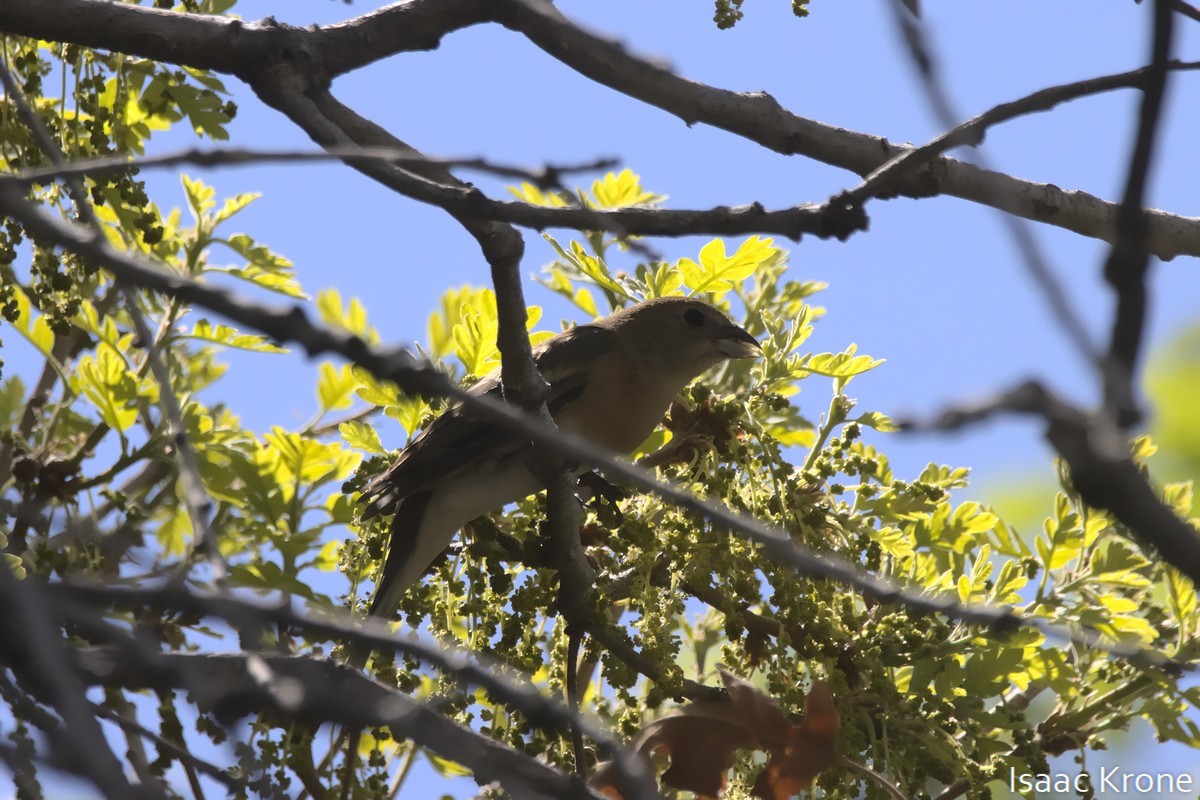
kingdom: Animalia
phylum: Chordata
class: Aves
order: Passeriformes
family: Cardinalidae
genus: Pheucticus
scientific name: Pheucticus melanocephalus
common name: Black-headed grosbeak
